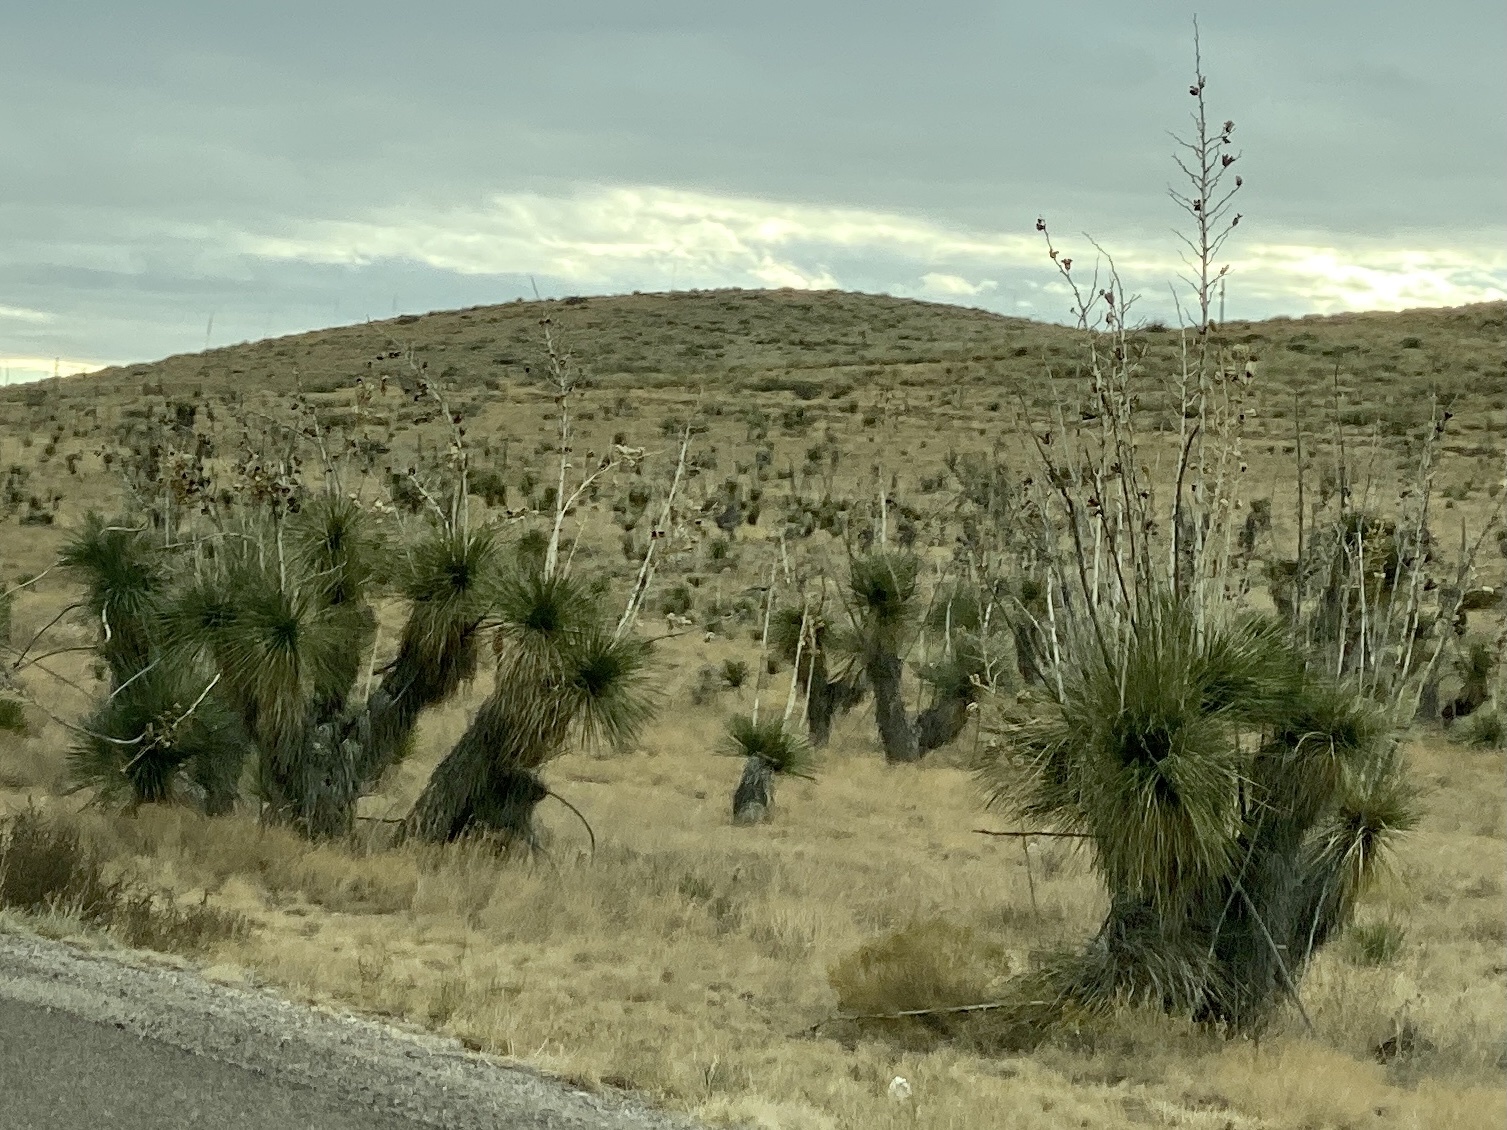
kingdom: Plantae
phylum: Tracheophyta
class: Liliopsida
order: Asparagales
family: Asparagaceae
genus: Yucca
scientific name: Yucca elata
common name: Palmella
